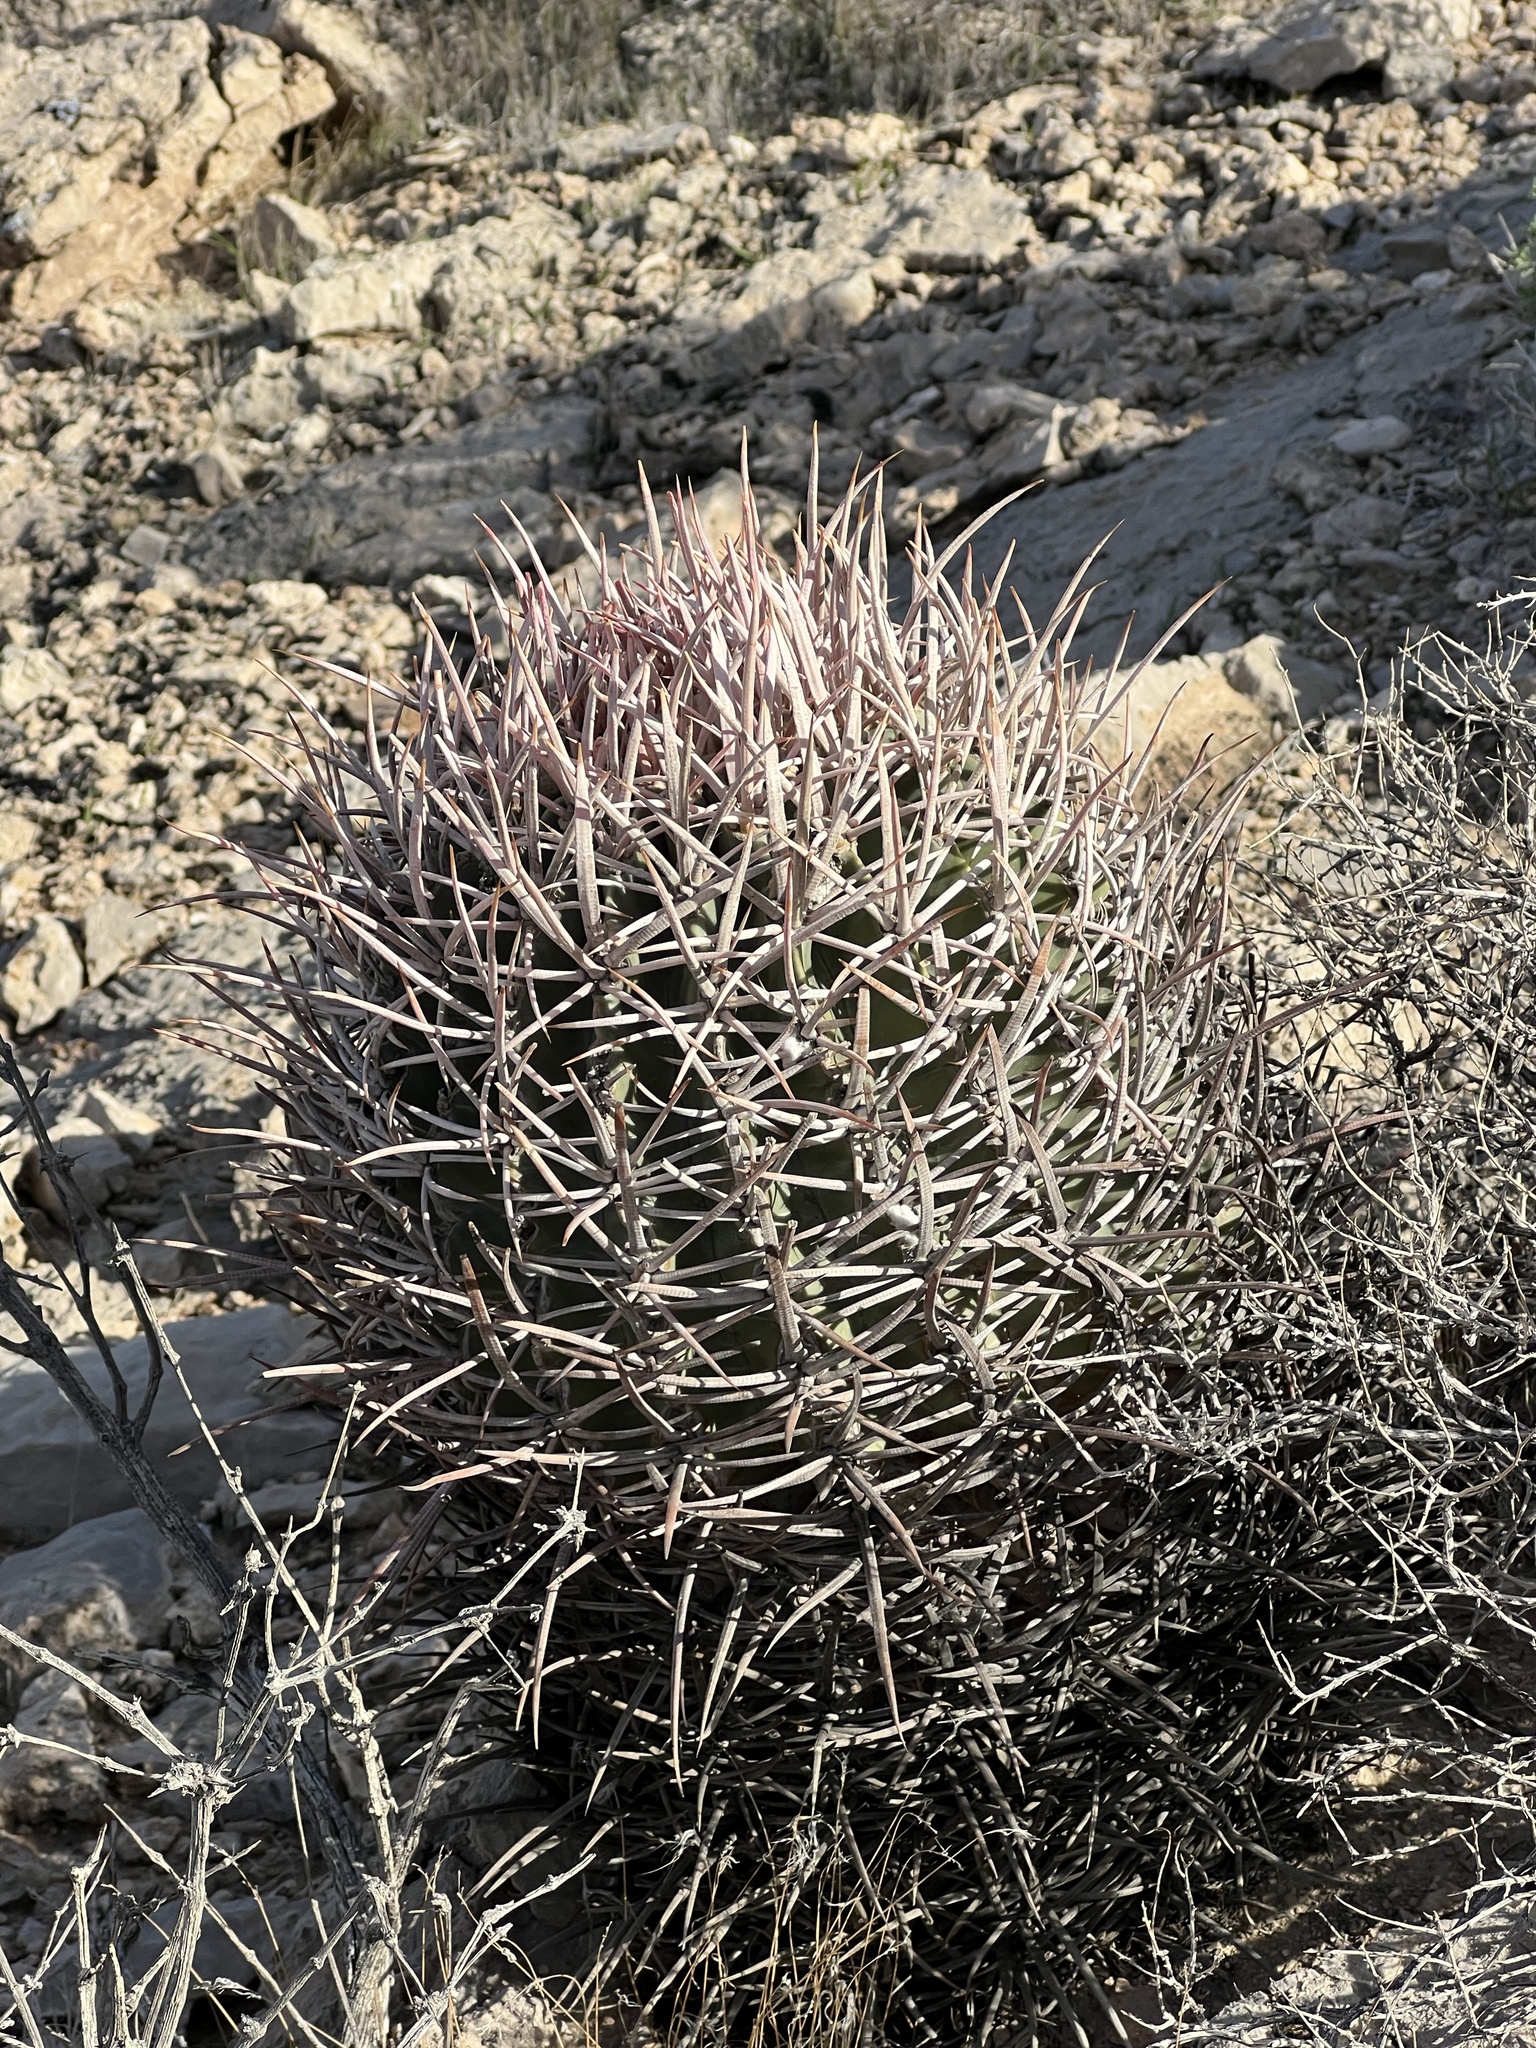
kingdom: Plantae
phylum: Tracheophyta
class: Magnoliopsida
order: Caryophyllales
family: Cactaceae
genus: Echinocactus
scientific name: Echinocactus polycephalus
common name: Cottontop cactus
